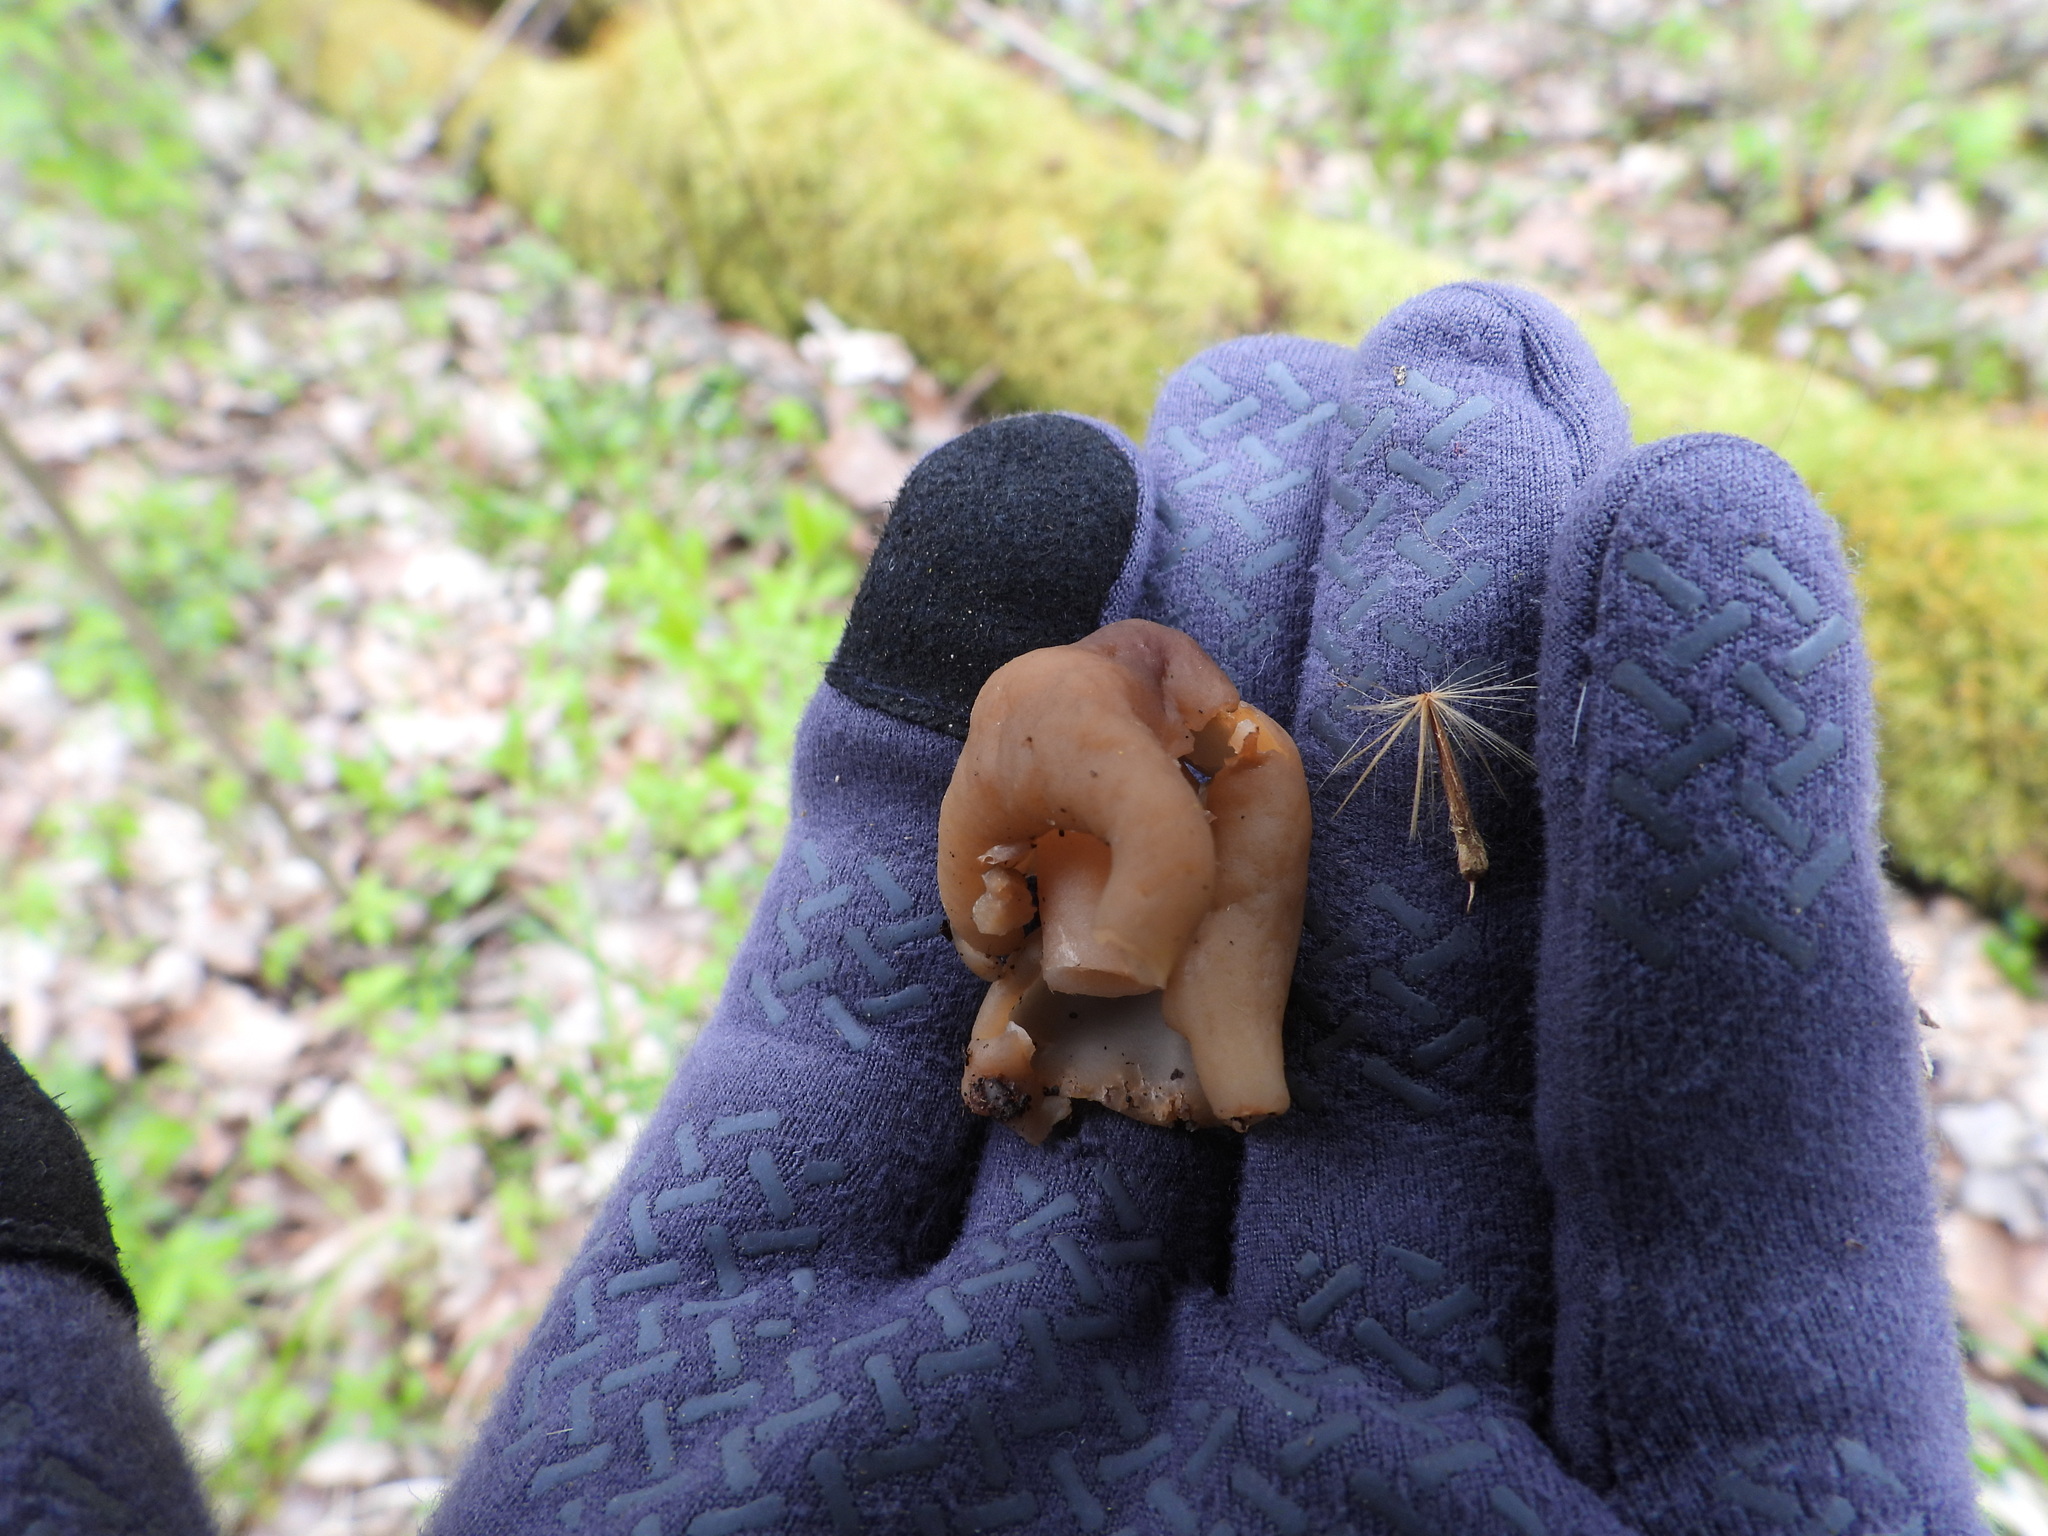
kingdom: Fungi
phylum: Ascomycota
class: Pezizomycetes
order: Pezizales
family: Morchellaceae
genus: Verpa
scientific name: Verpa conica
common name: Thimble morel
